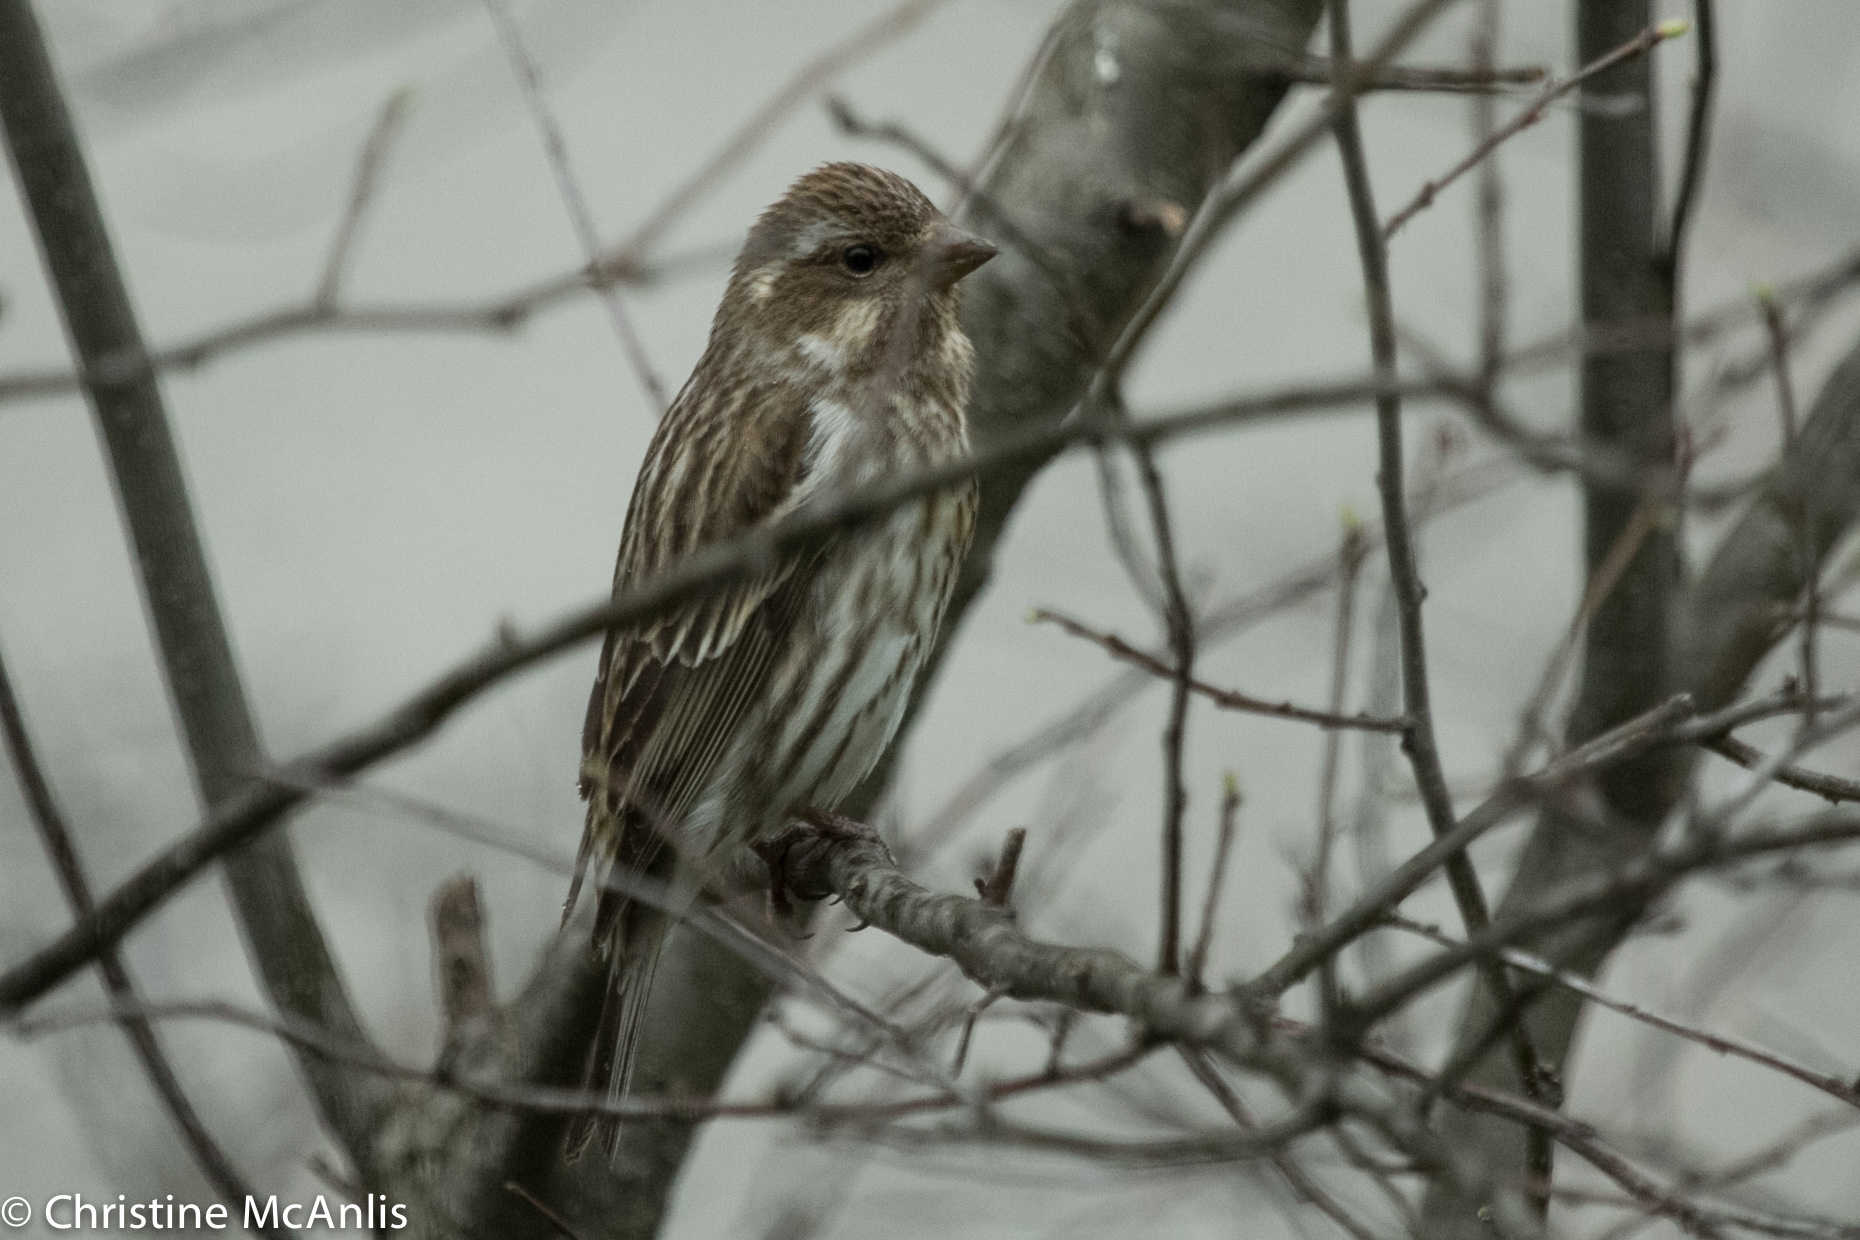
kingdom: Animalia
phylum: Chordata
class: Aves
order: Passeriformes
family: Fringillidae
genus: Haemorhous
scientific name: Haemorhous purpureus
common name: Purple finch
